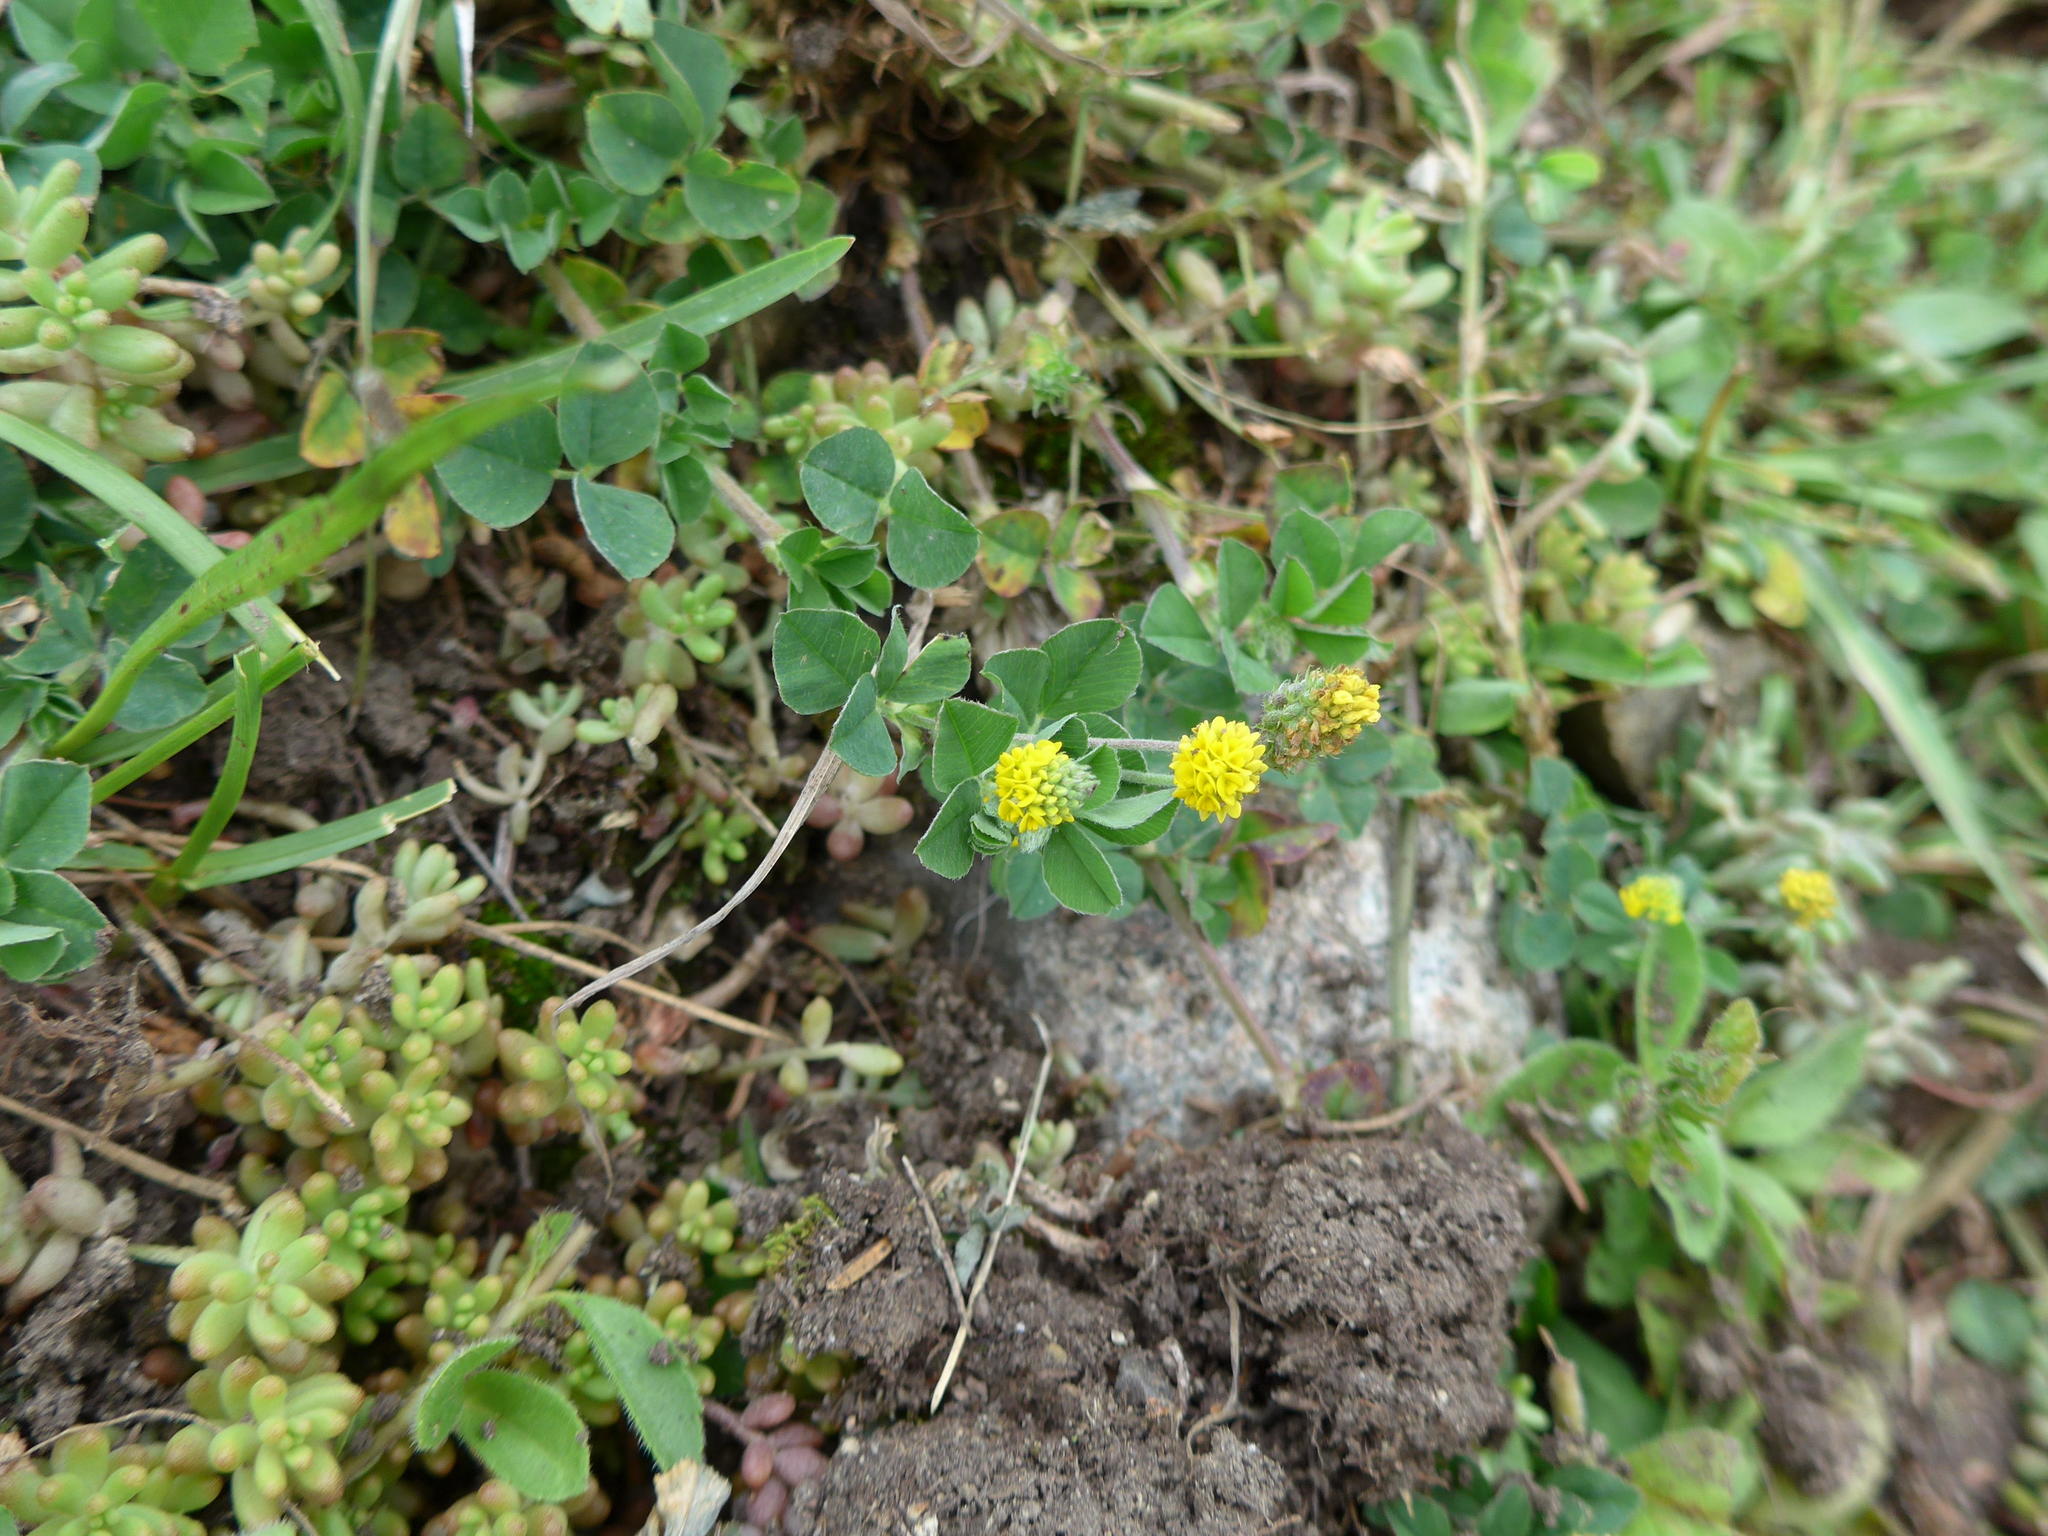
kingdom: Plantae
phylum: Tracheophyta
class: Magnoliopsida
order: Fabales
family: Fabaceae
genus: Medicago
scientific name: Medicago lupulina
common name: Black medick
